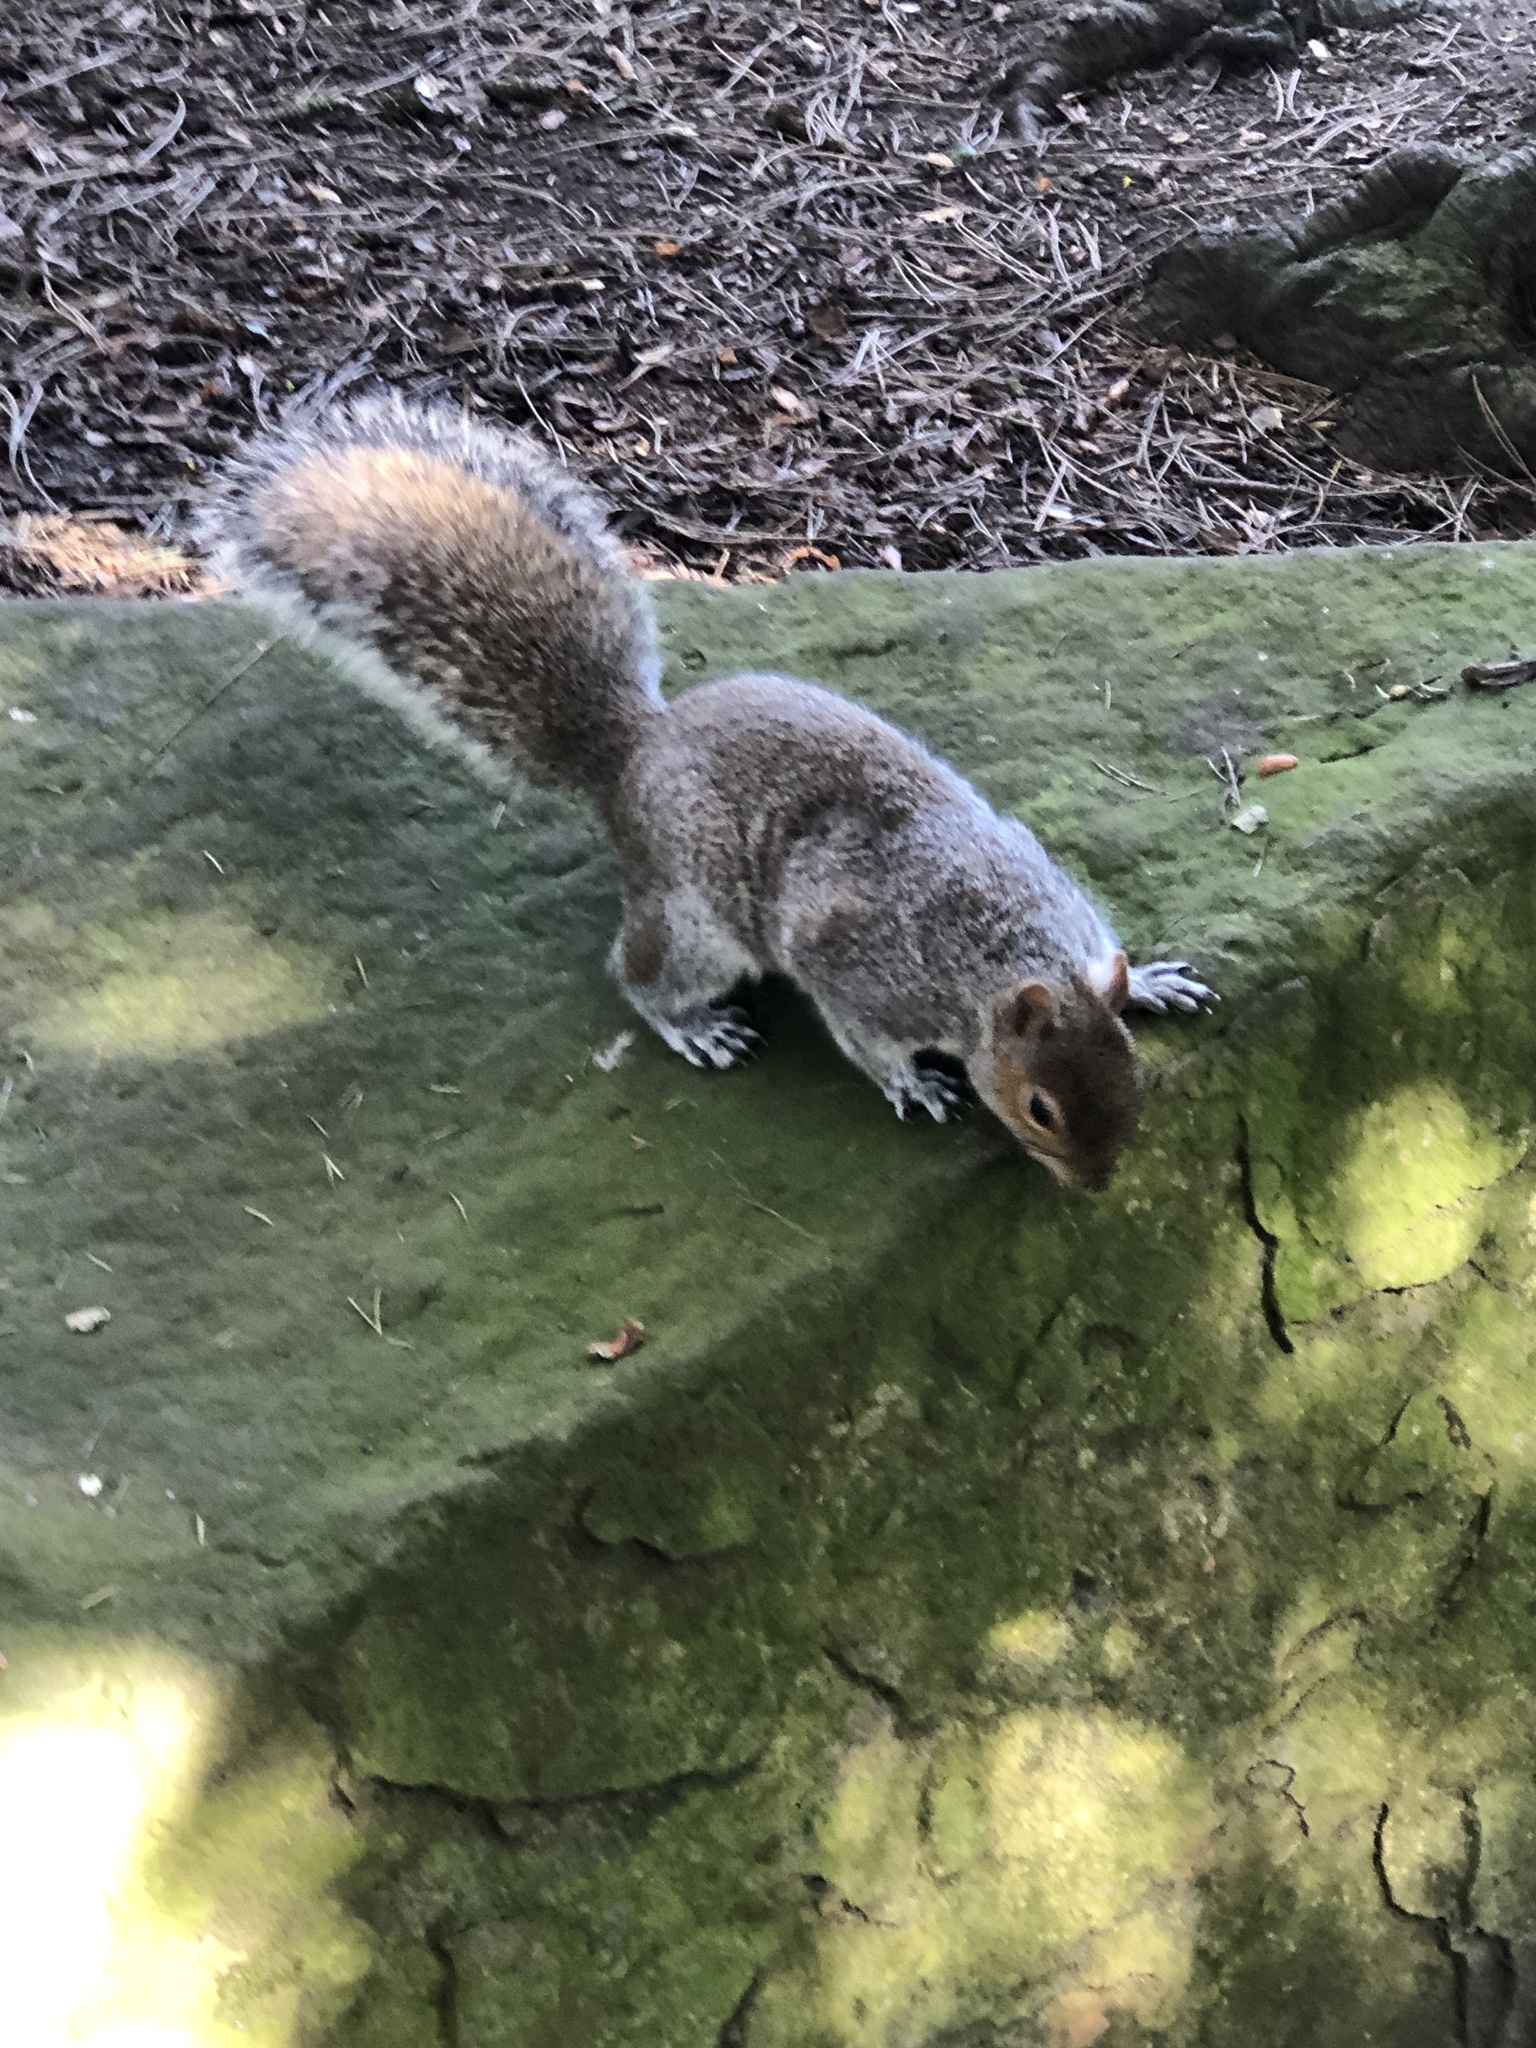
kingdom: Animalia
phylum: Chordata
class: Mammalia
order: Rodentia
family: Sciuridae
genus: Sciurus
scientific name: Sciurus carolinensis
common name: Eastern gray squirrel
